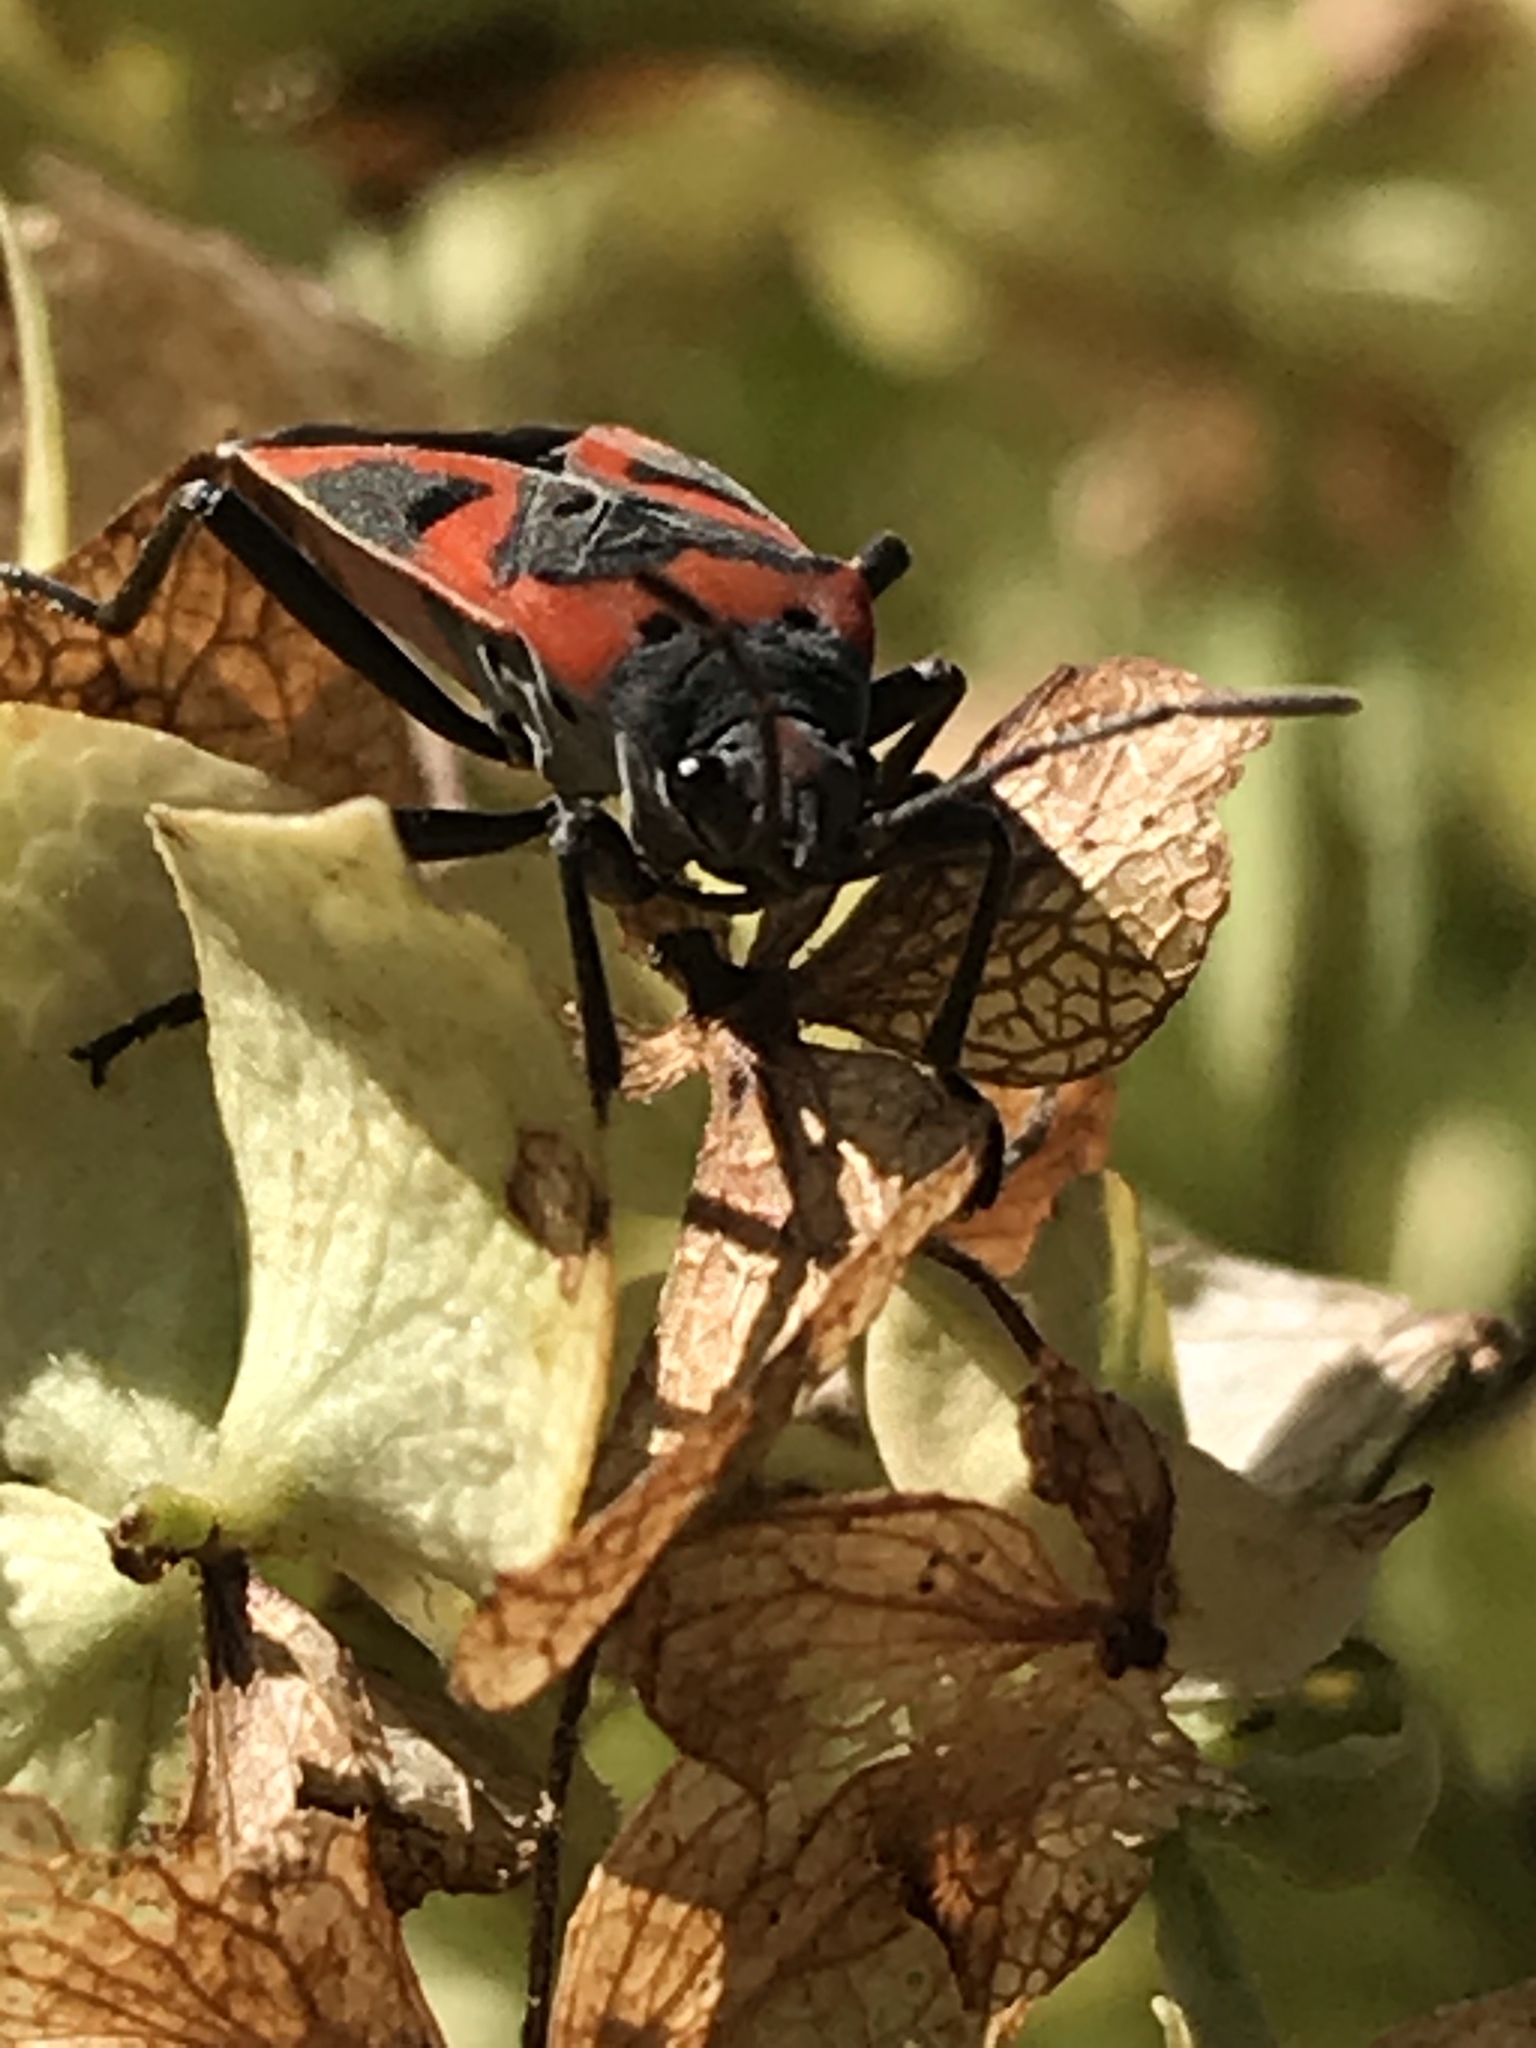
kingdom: Animalia
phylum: Arthropoda
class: Insecta
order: Hemiptera
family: Lygaeidae
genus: Lygaeus
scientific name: Lygaeus kalmii
